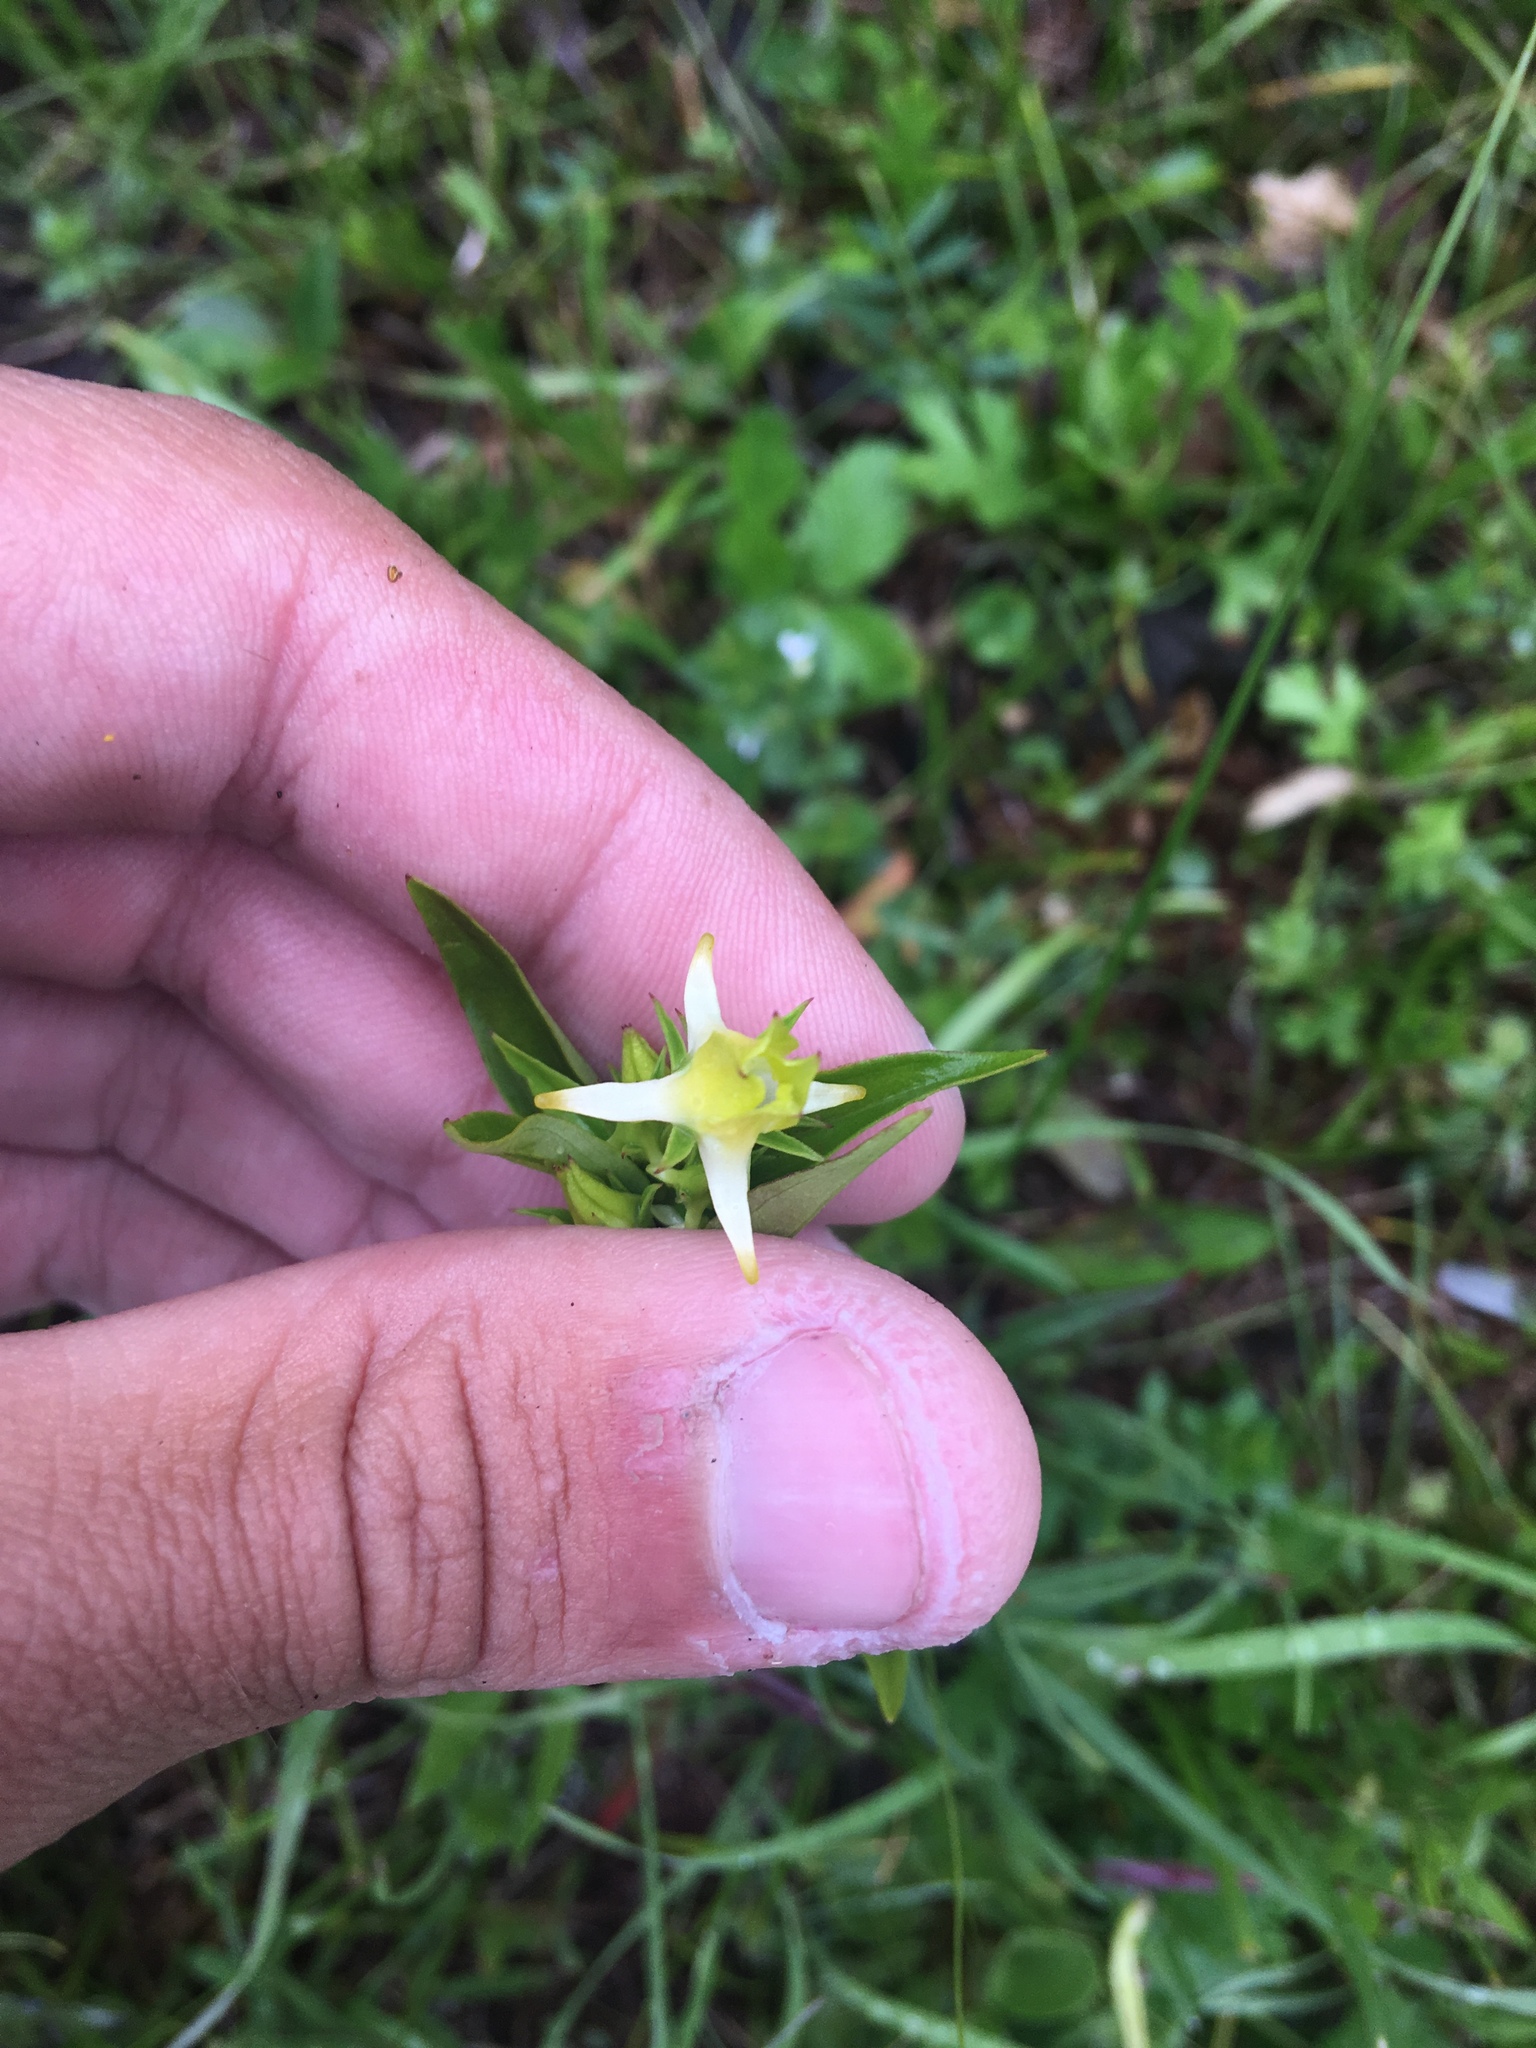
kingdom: Plantae
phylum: Tracheophyta
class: Magnoliopsida
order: Gentianales
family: Gentianaceae
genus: Halenia
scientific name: Halenia corniculata
